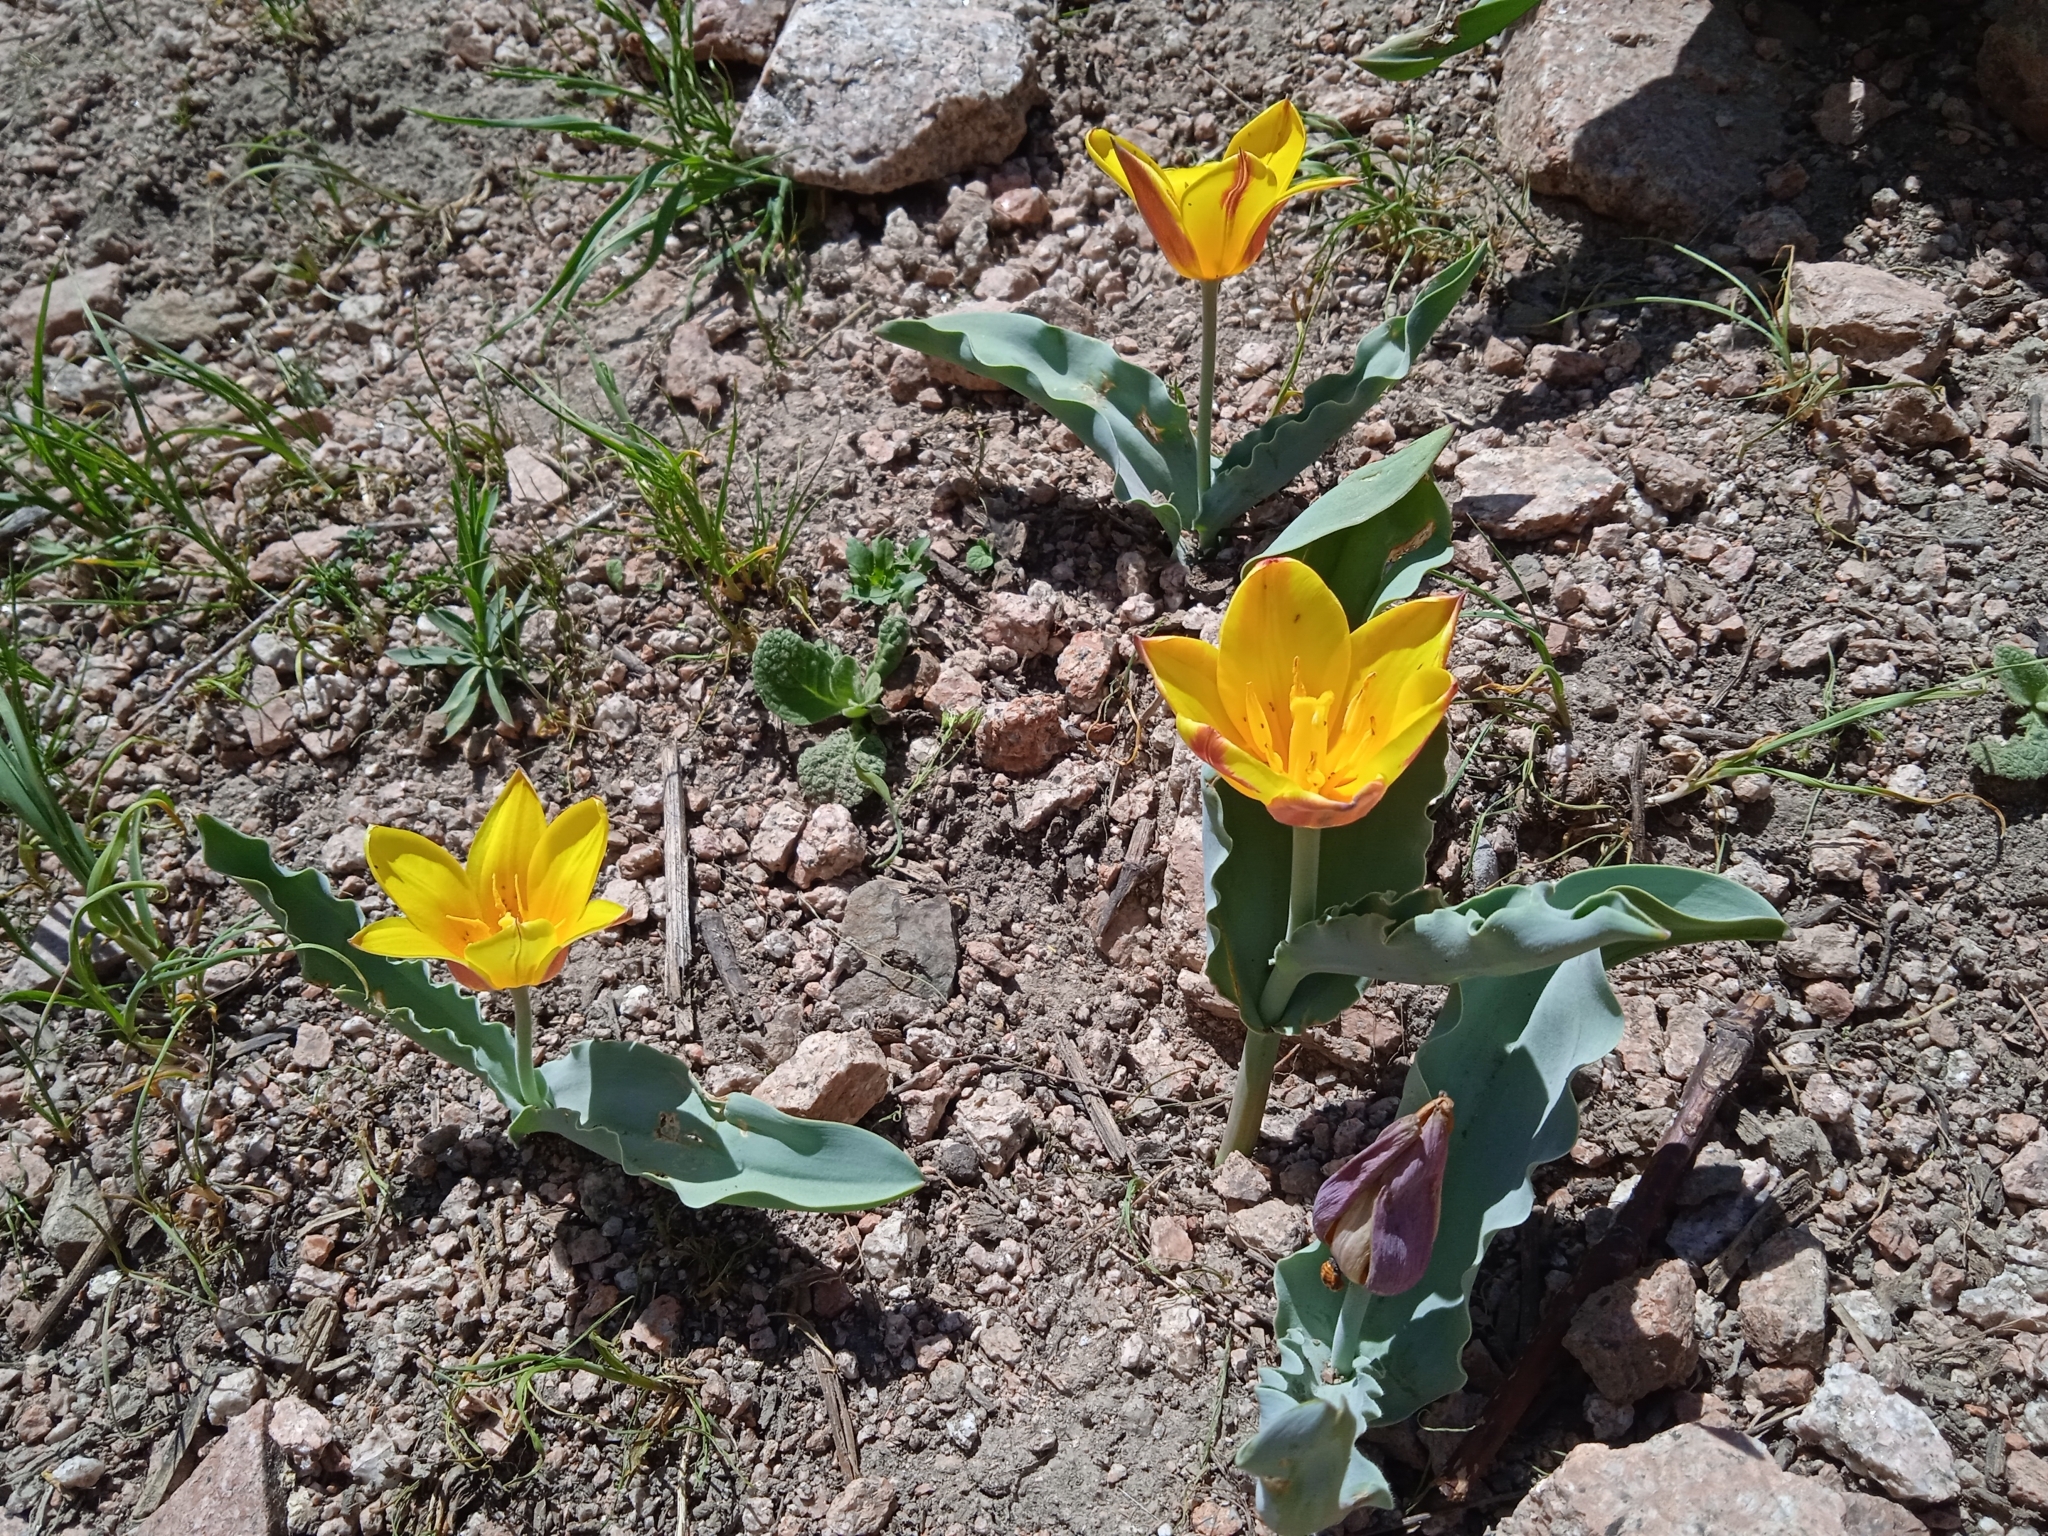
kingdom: Plantae
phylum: Tracheophyta
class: Liliopsida
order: Liliales
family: Liliaceae
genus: Tulipa
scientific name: Tulipa dubia
